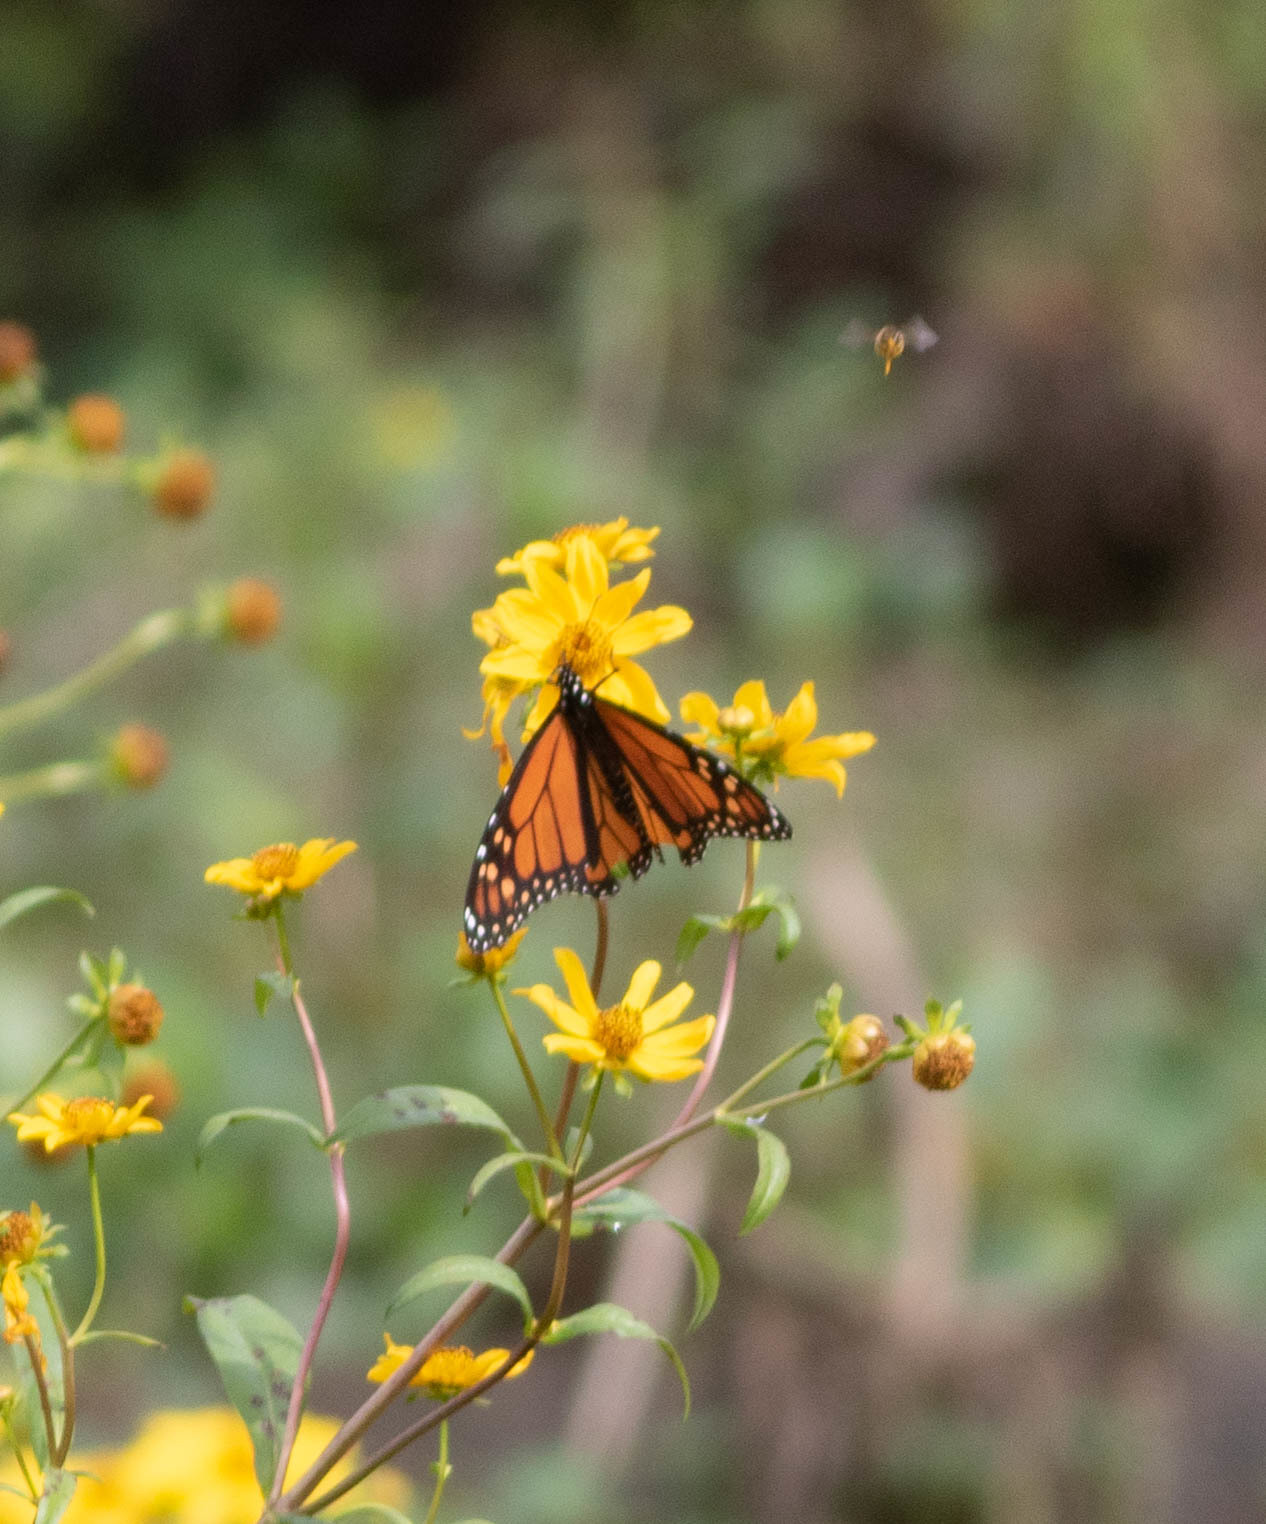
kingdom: Animalia
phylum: Arthropoda
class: Insecta
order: Lepidoptera
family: Nymphalidae
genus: Danaus
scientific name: Danaus plexippus
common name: Monarch
